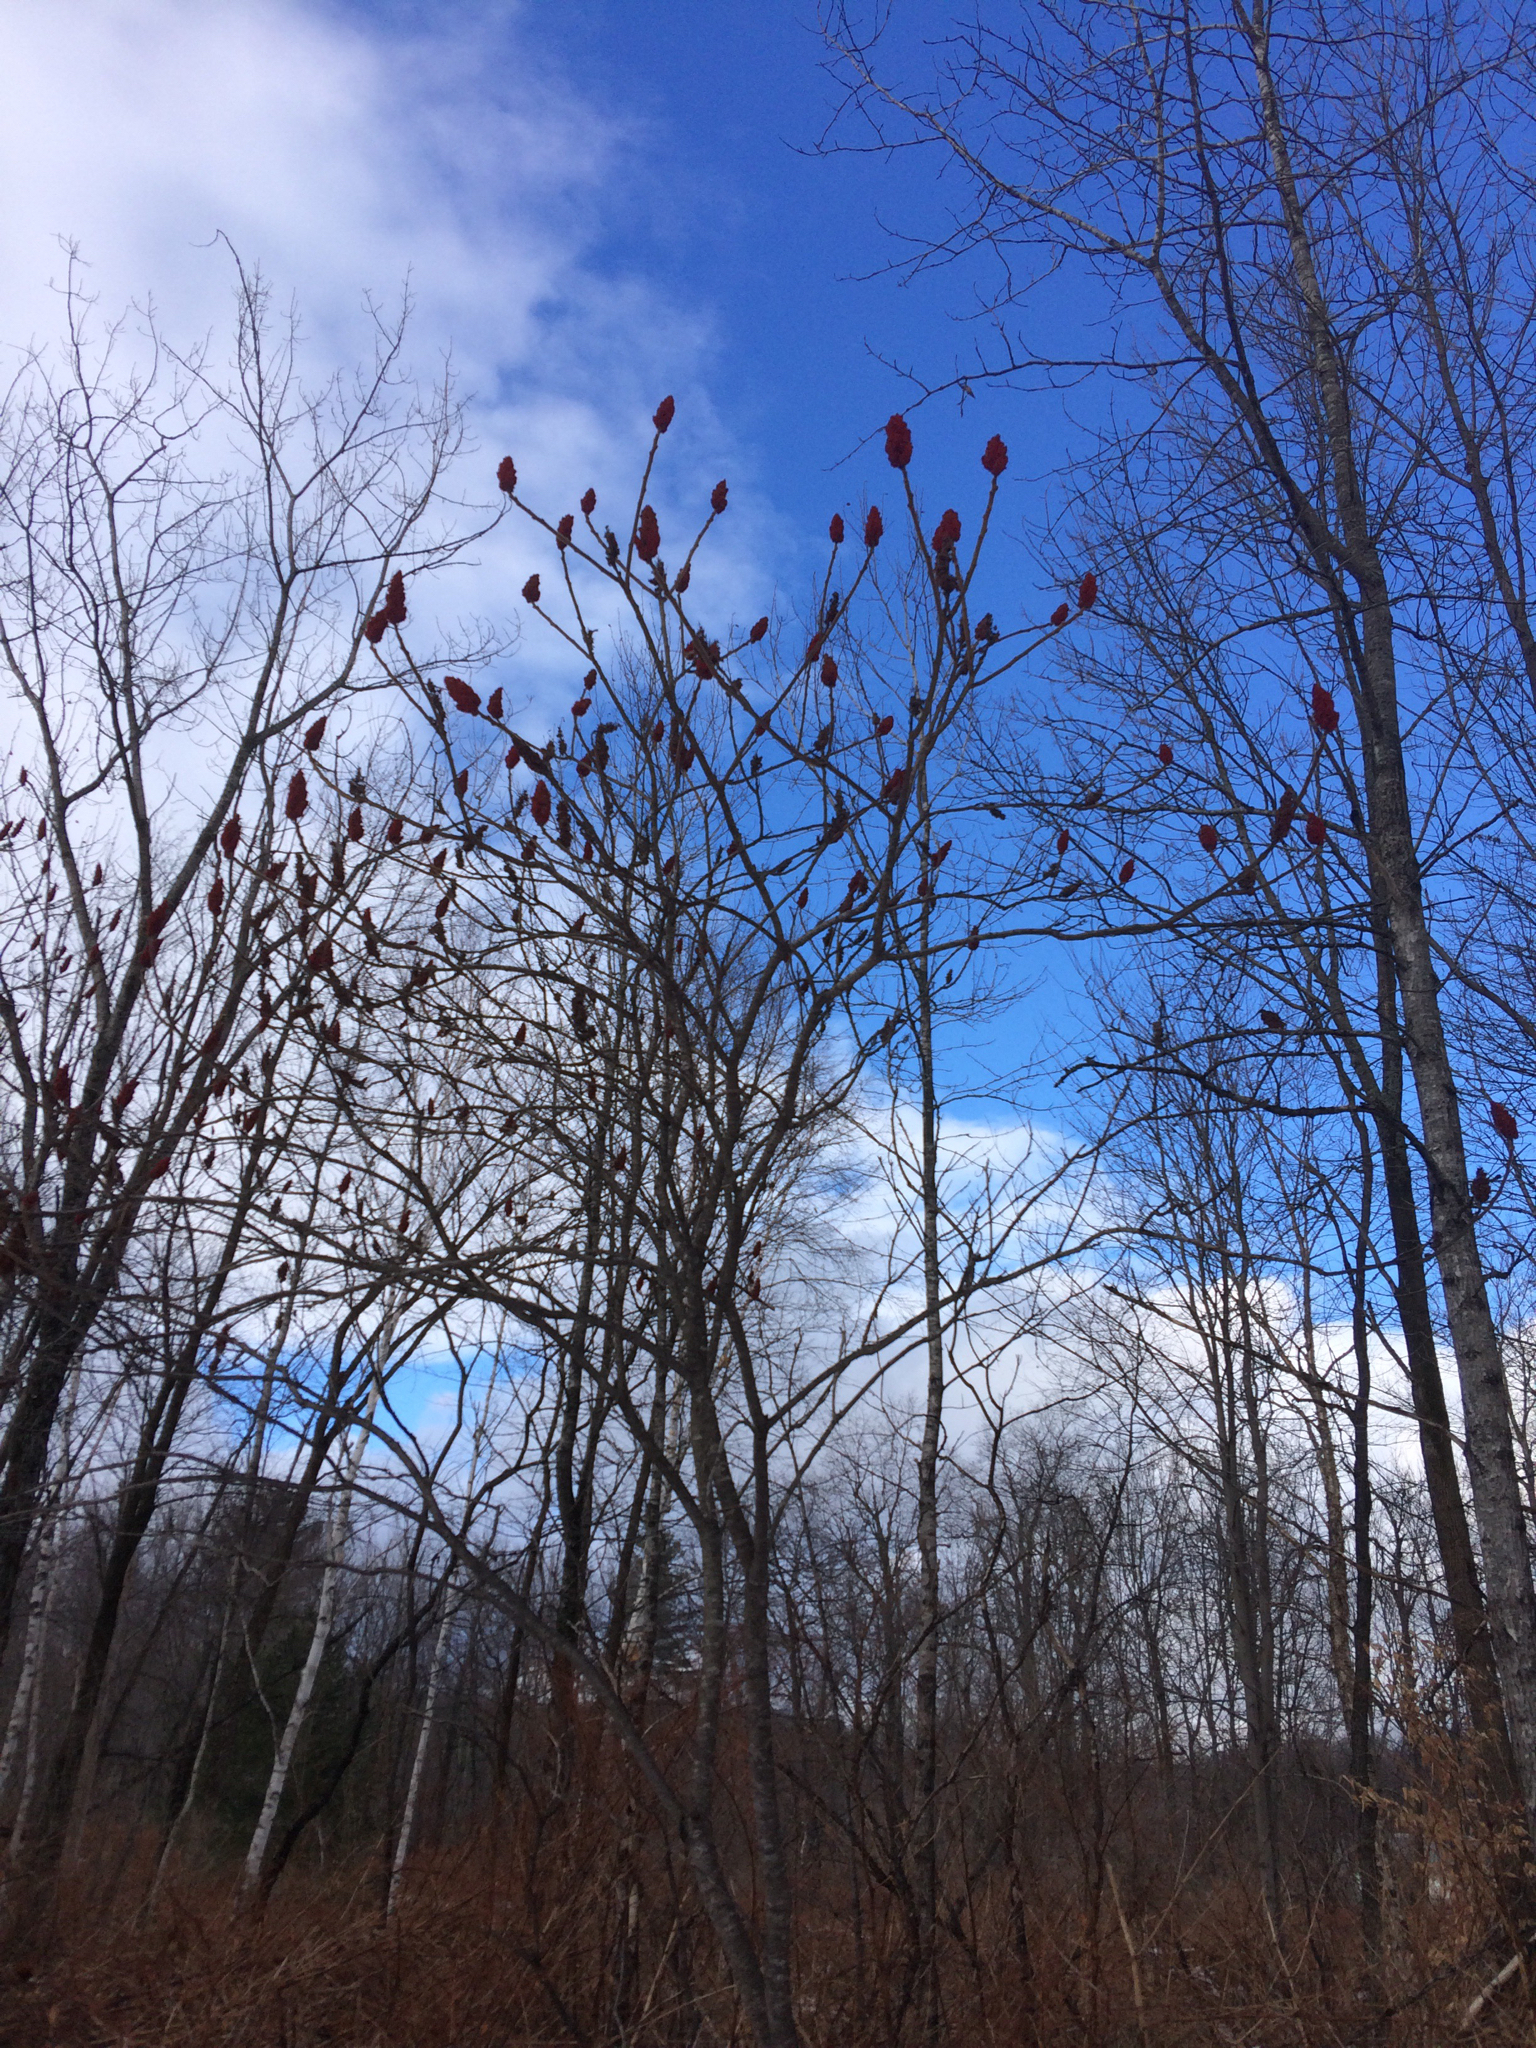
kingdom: Plantae
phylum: Tracheophyta
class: Magnoliopsida
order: Sapindales
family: Anacardiaceae
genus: Rhus
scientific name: Rhus typhina
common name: Staghorn sumac
